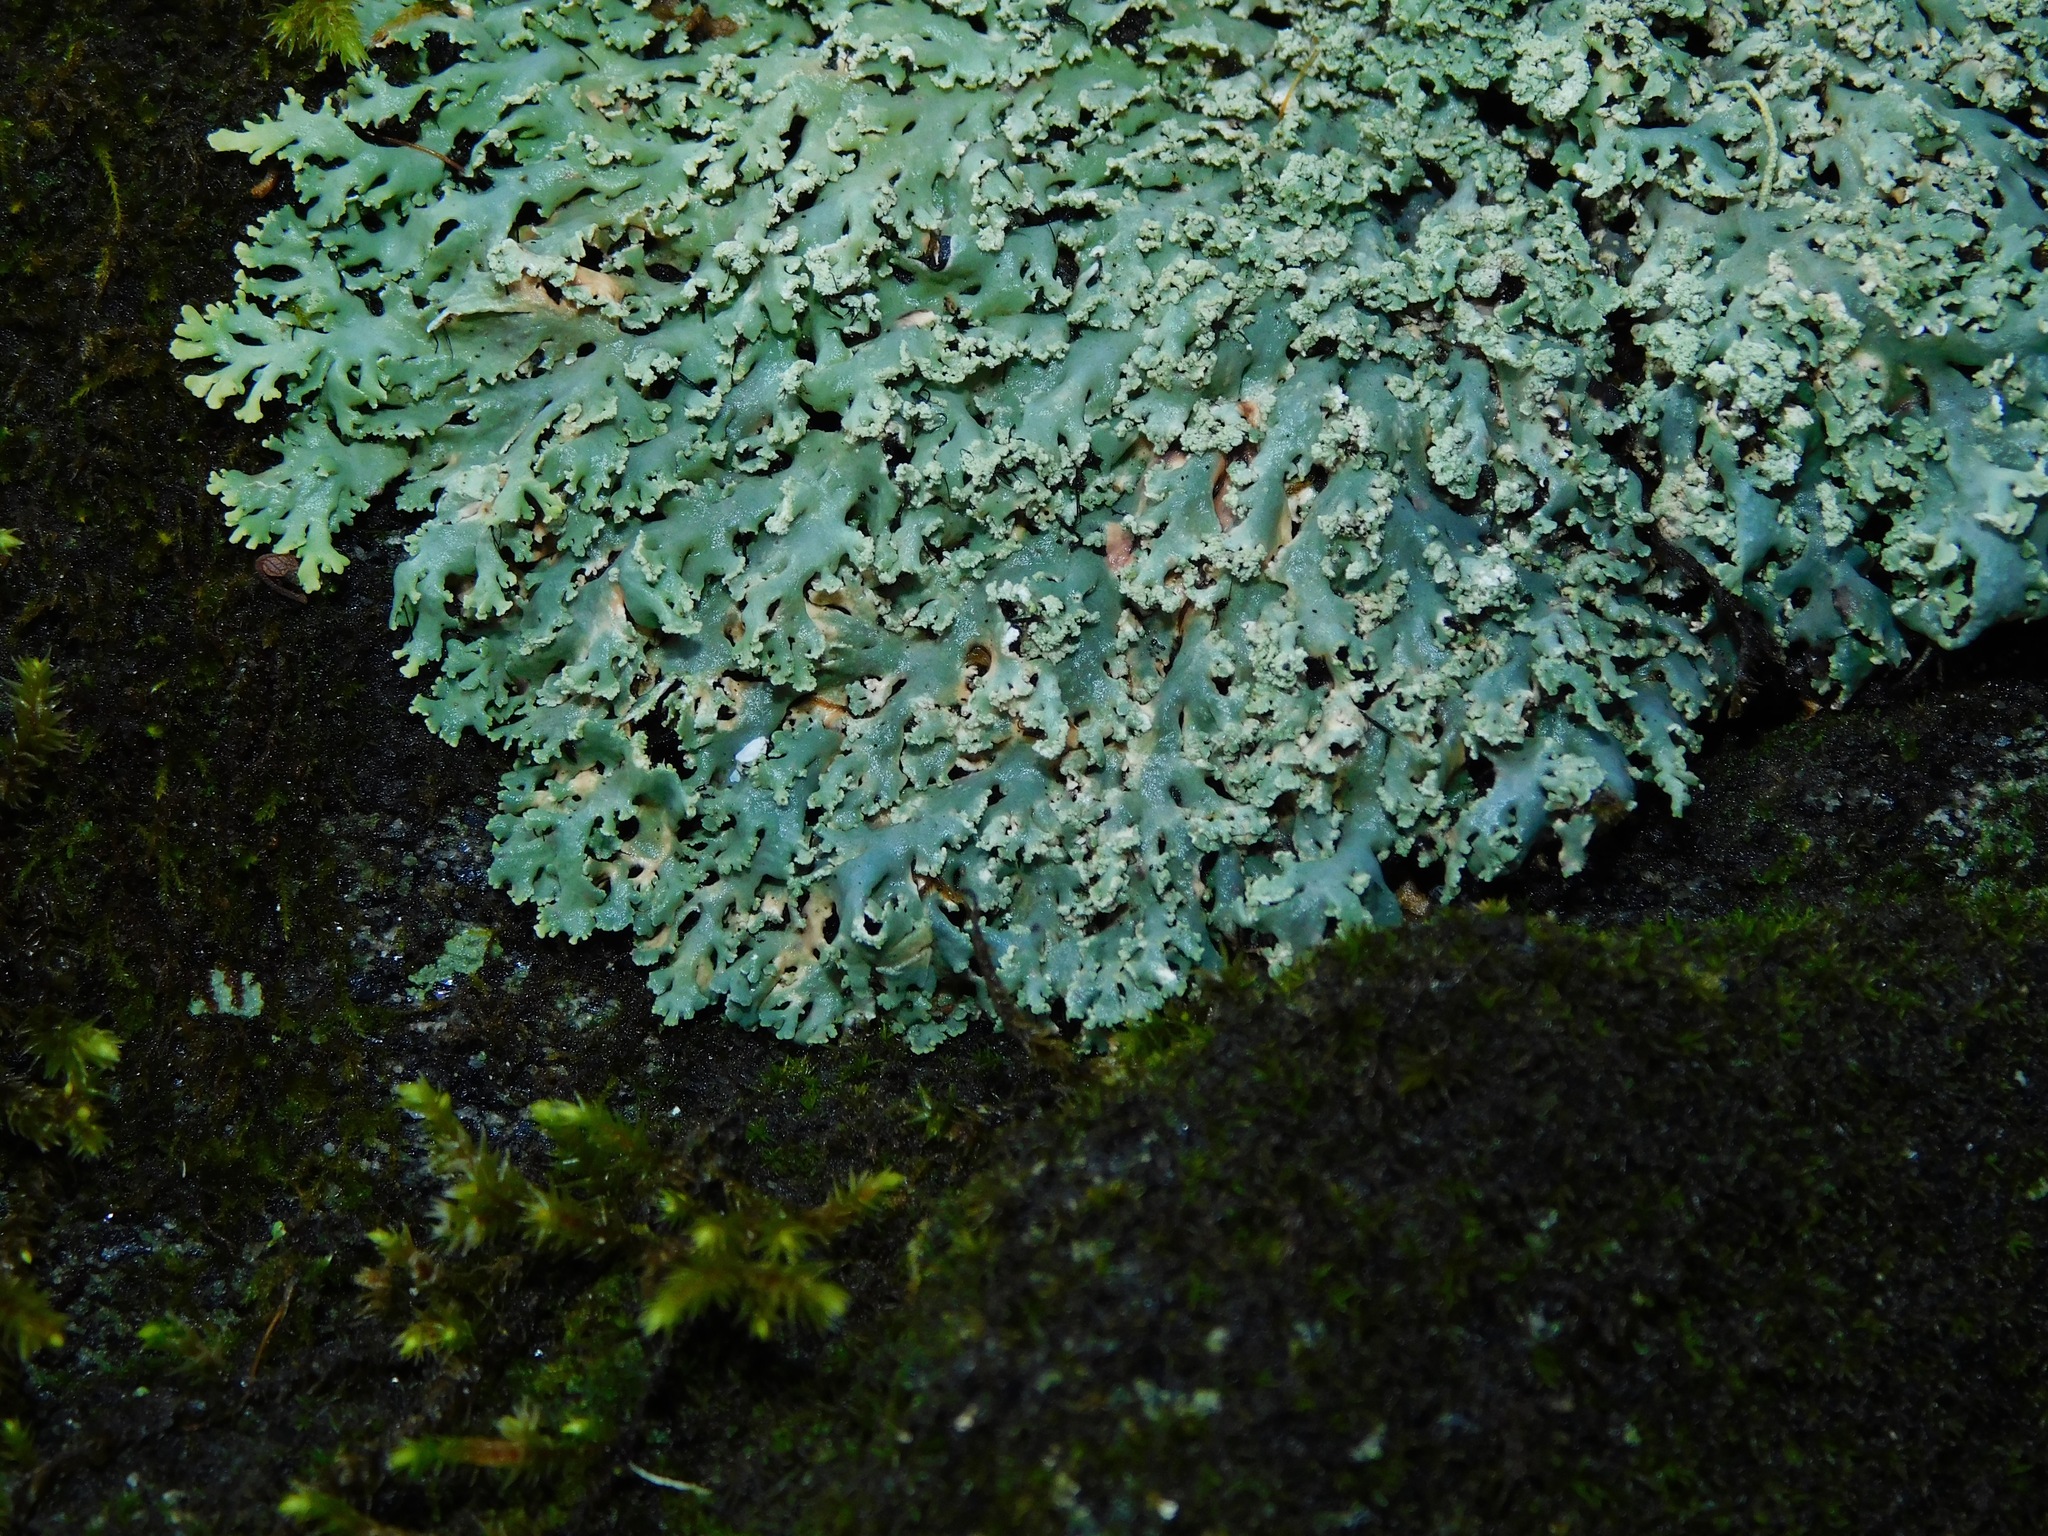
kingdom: Fungi
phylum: Ascomycota
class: Lecanoromycetes
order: Caliciales
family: Physciaceae
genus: Polyblastidium
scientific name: Polyblastidium casarettianum
